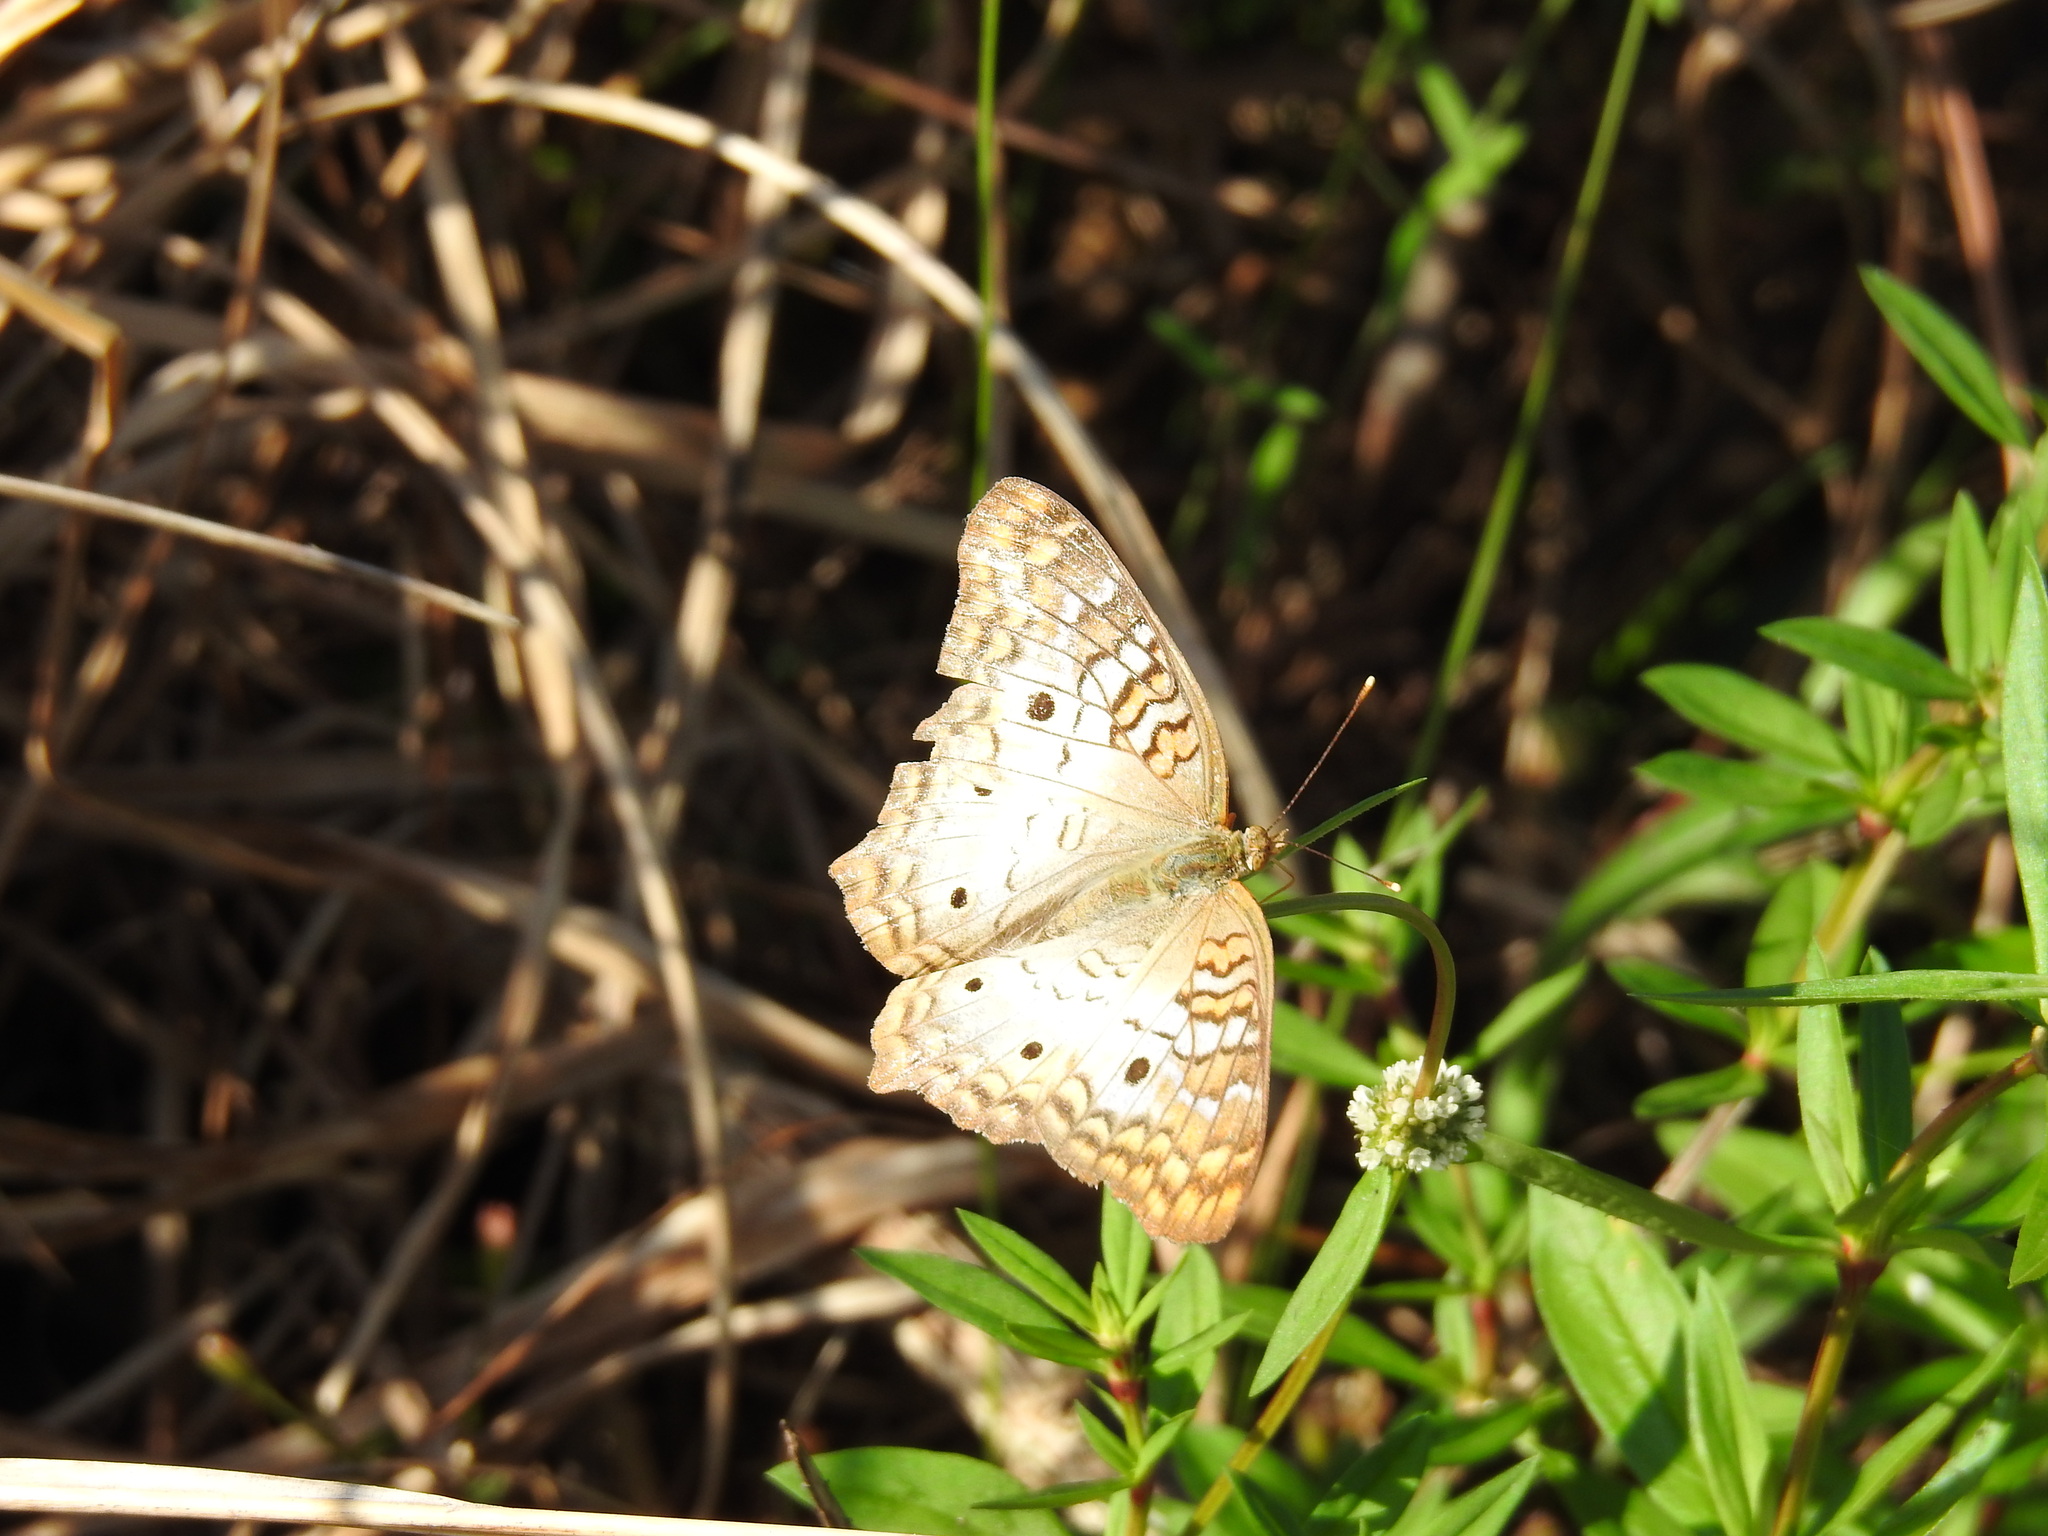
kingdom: Animalia
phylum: Arthropoda
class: Insecta
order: Lepidoptera
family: Nymphalidae
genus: Anartia
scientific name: Anartia jatrophae
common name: White peacock
